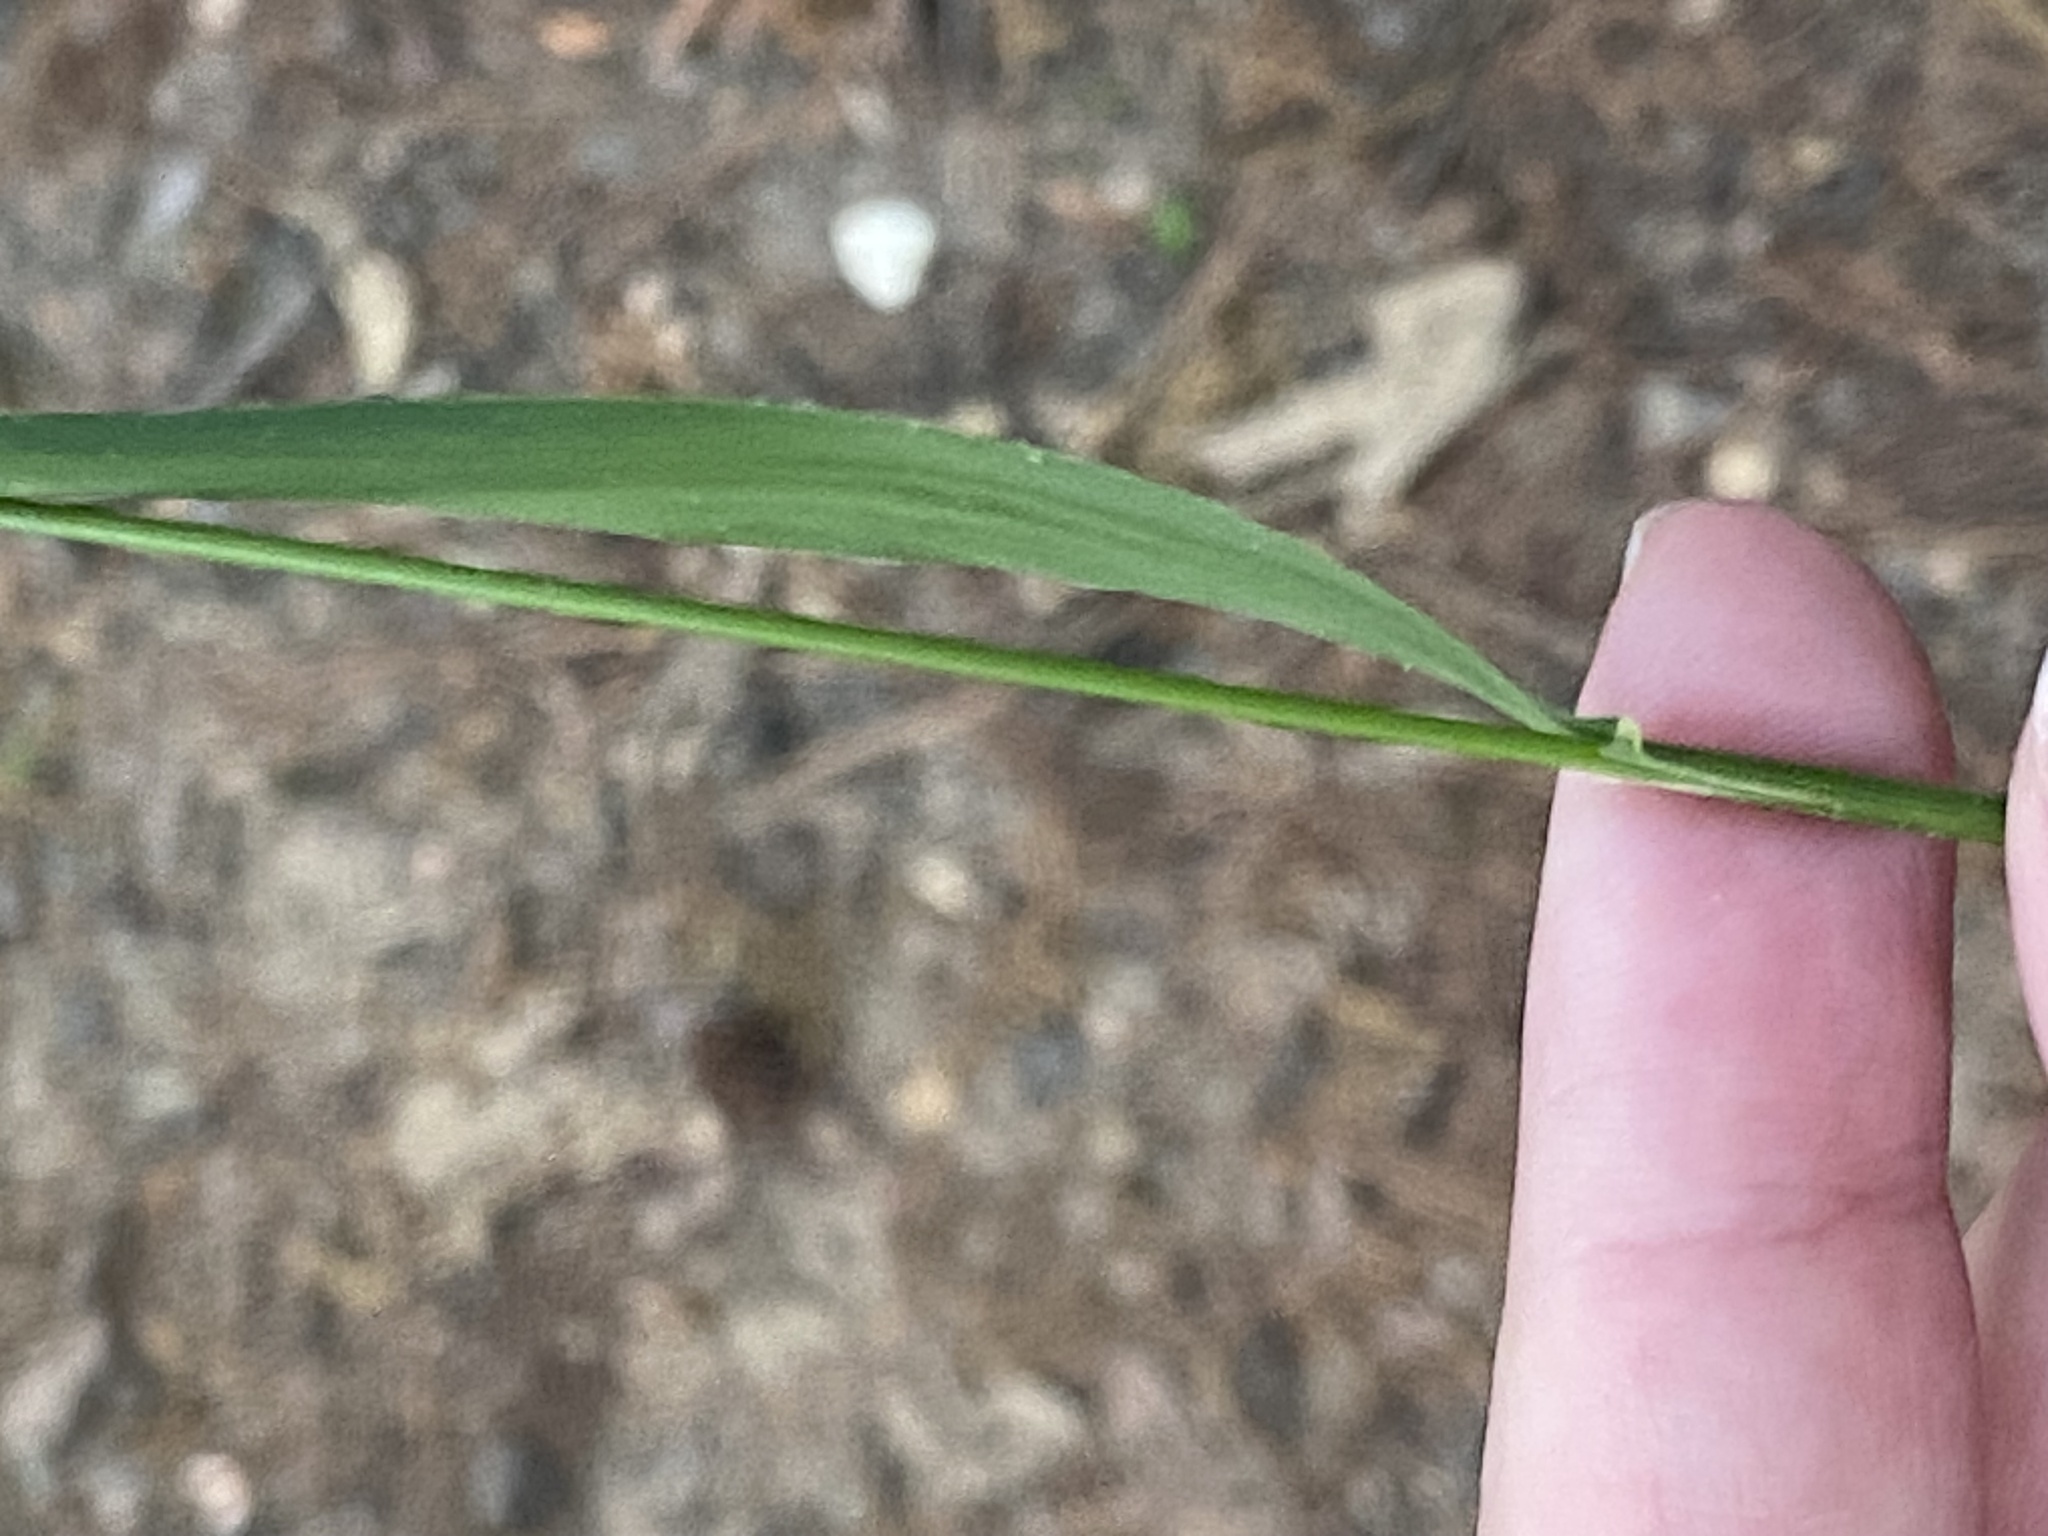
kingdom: Plantae
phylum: Tracheophyta
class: Liliopsida
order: Poales
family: Poaceae
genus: Melica
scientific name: Melica mutica
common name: Two-flower melic
